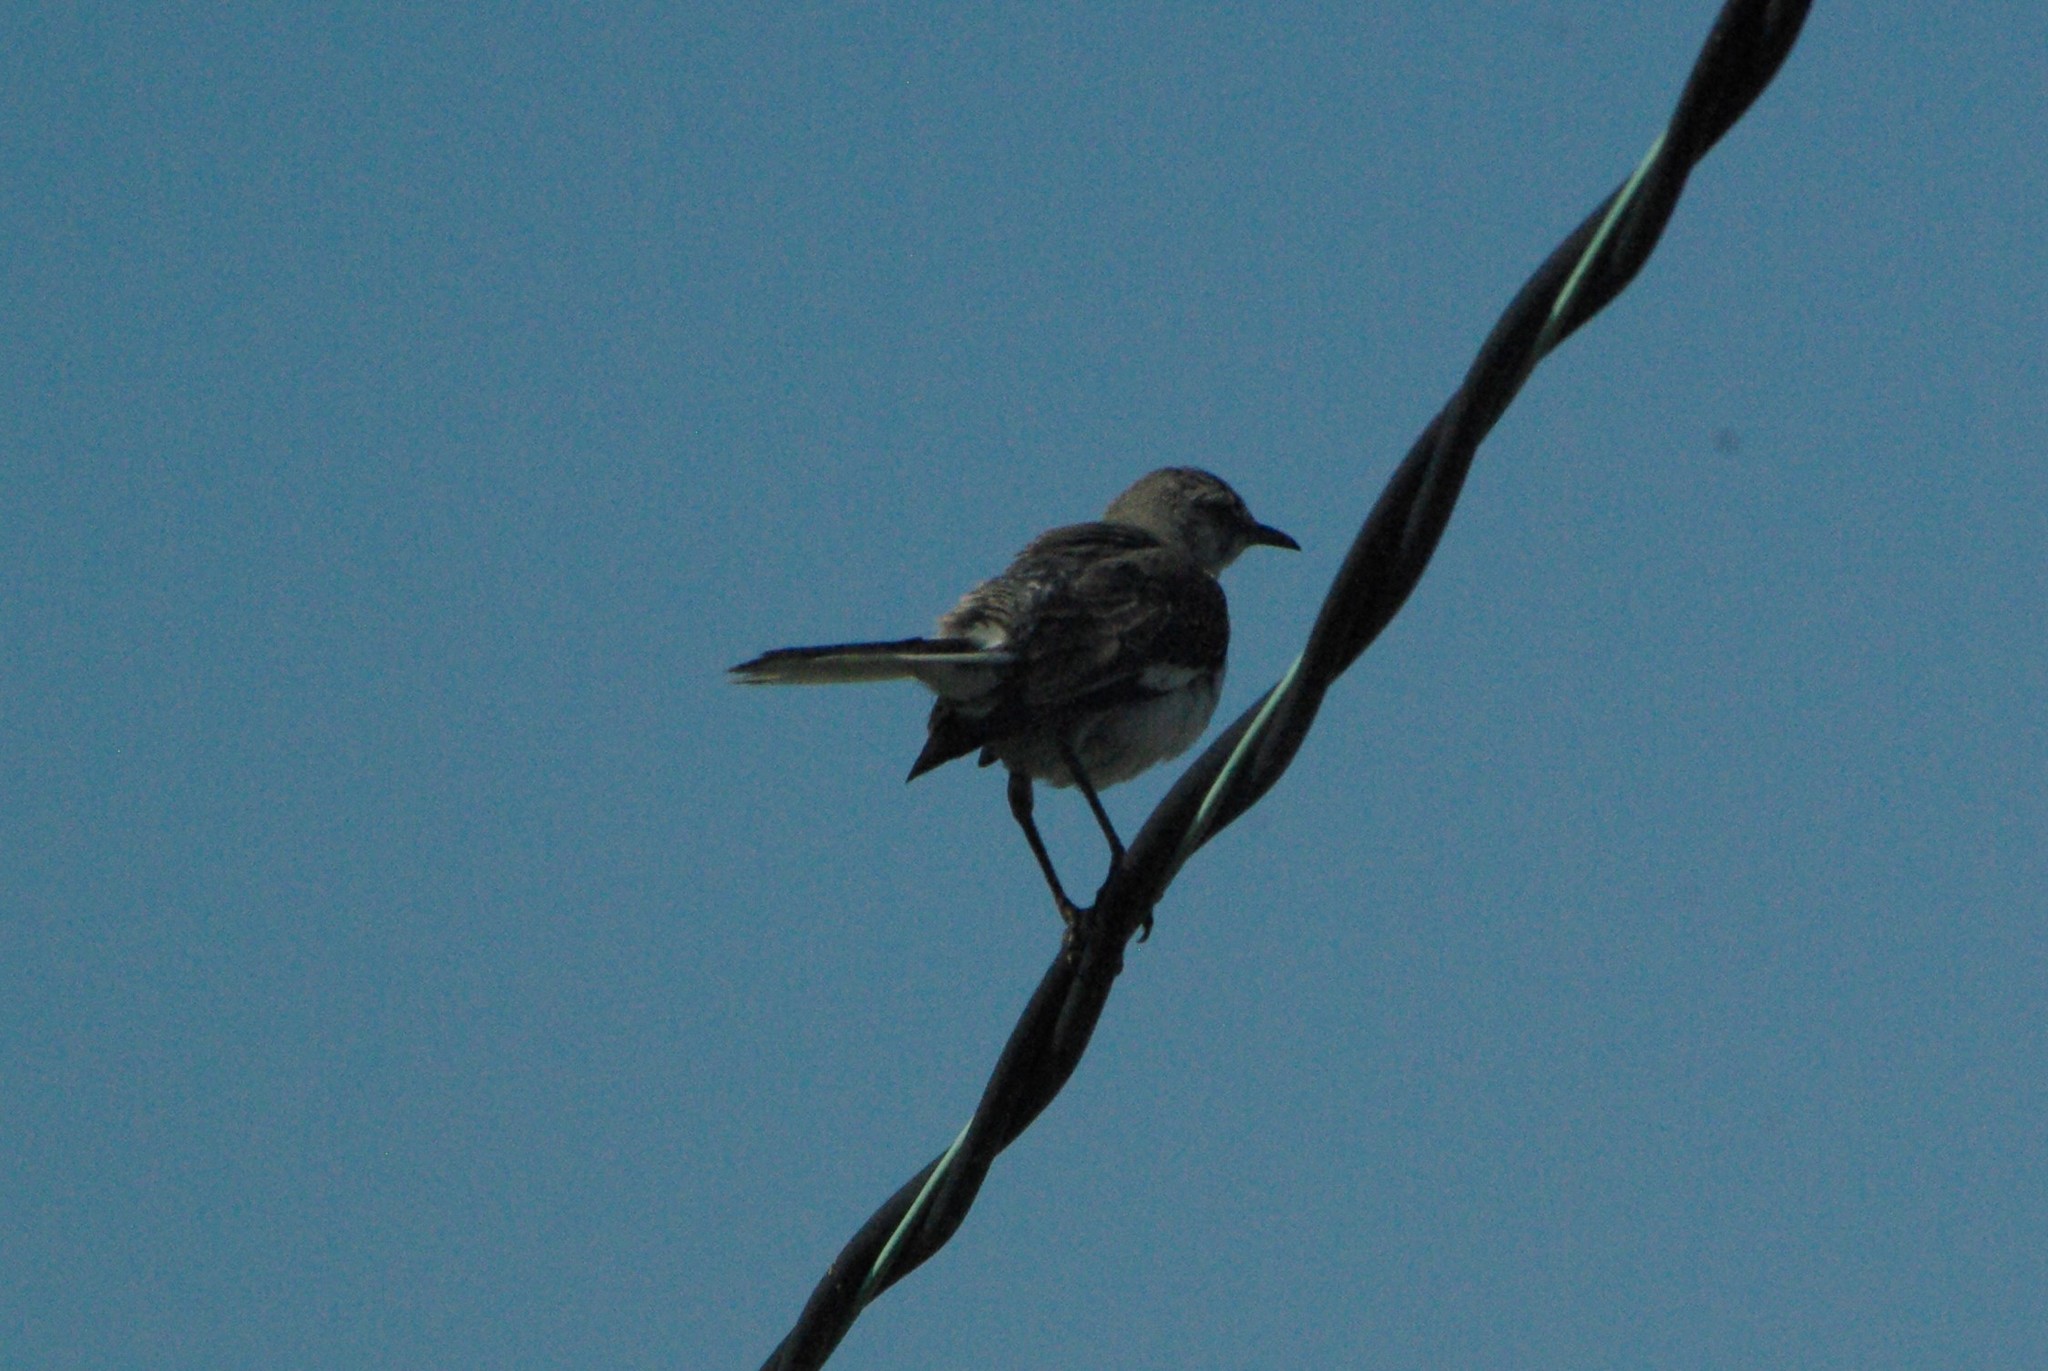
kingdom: Animalia
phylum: Chordata
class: Aves
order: Passeriformes
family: Mimidae
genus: Mimus
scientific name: Mimus polyglottos
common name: Northern mockingbird
